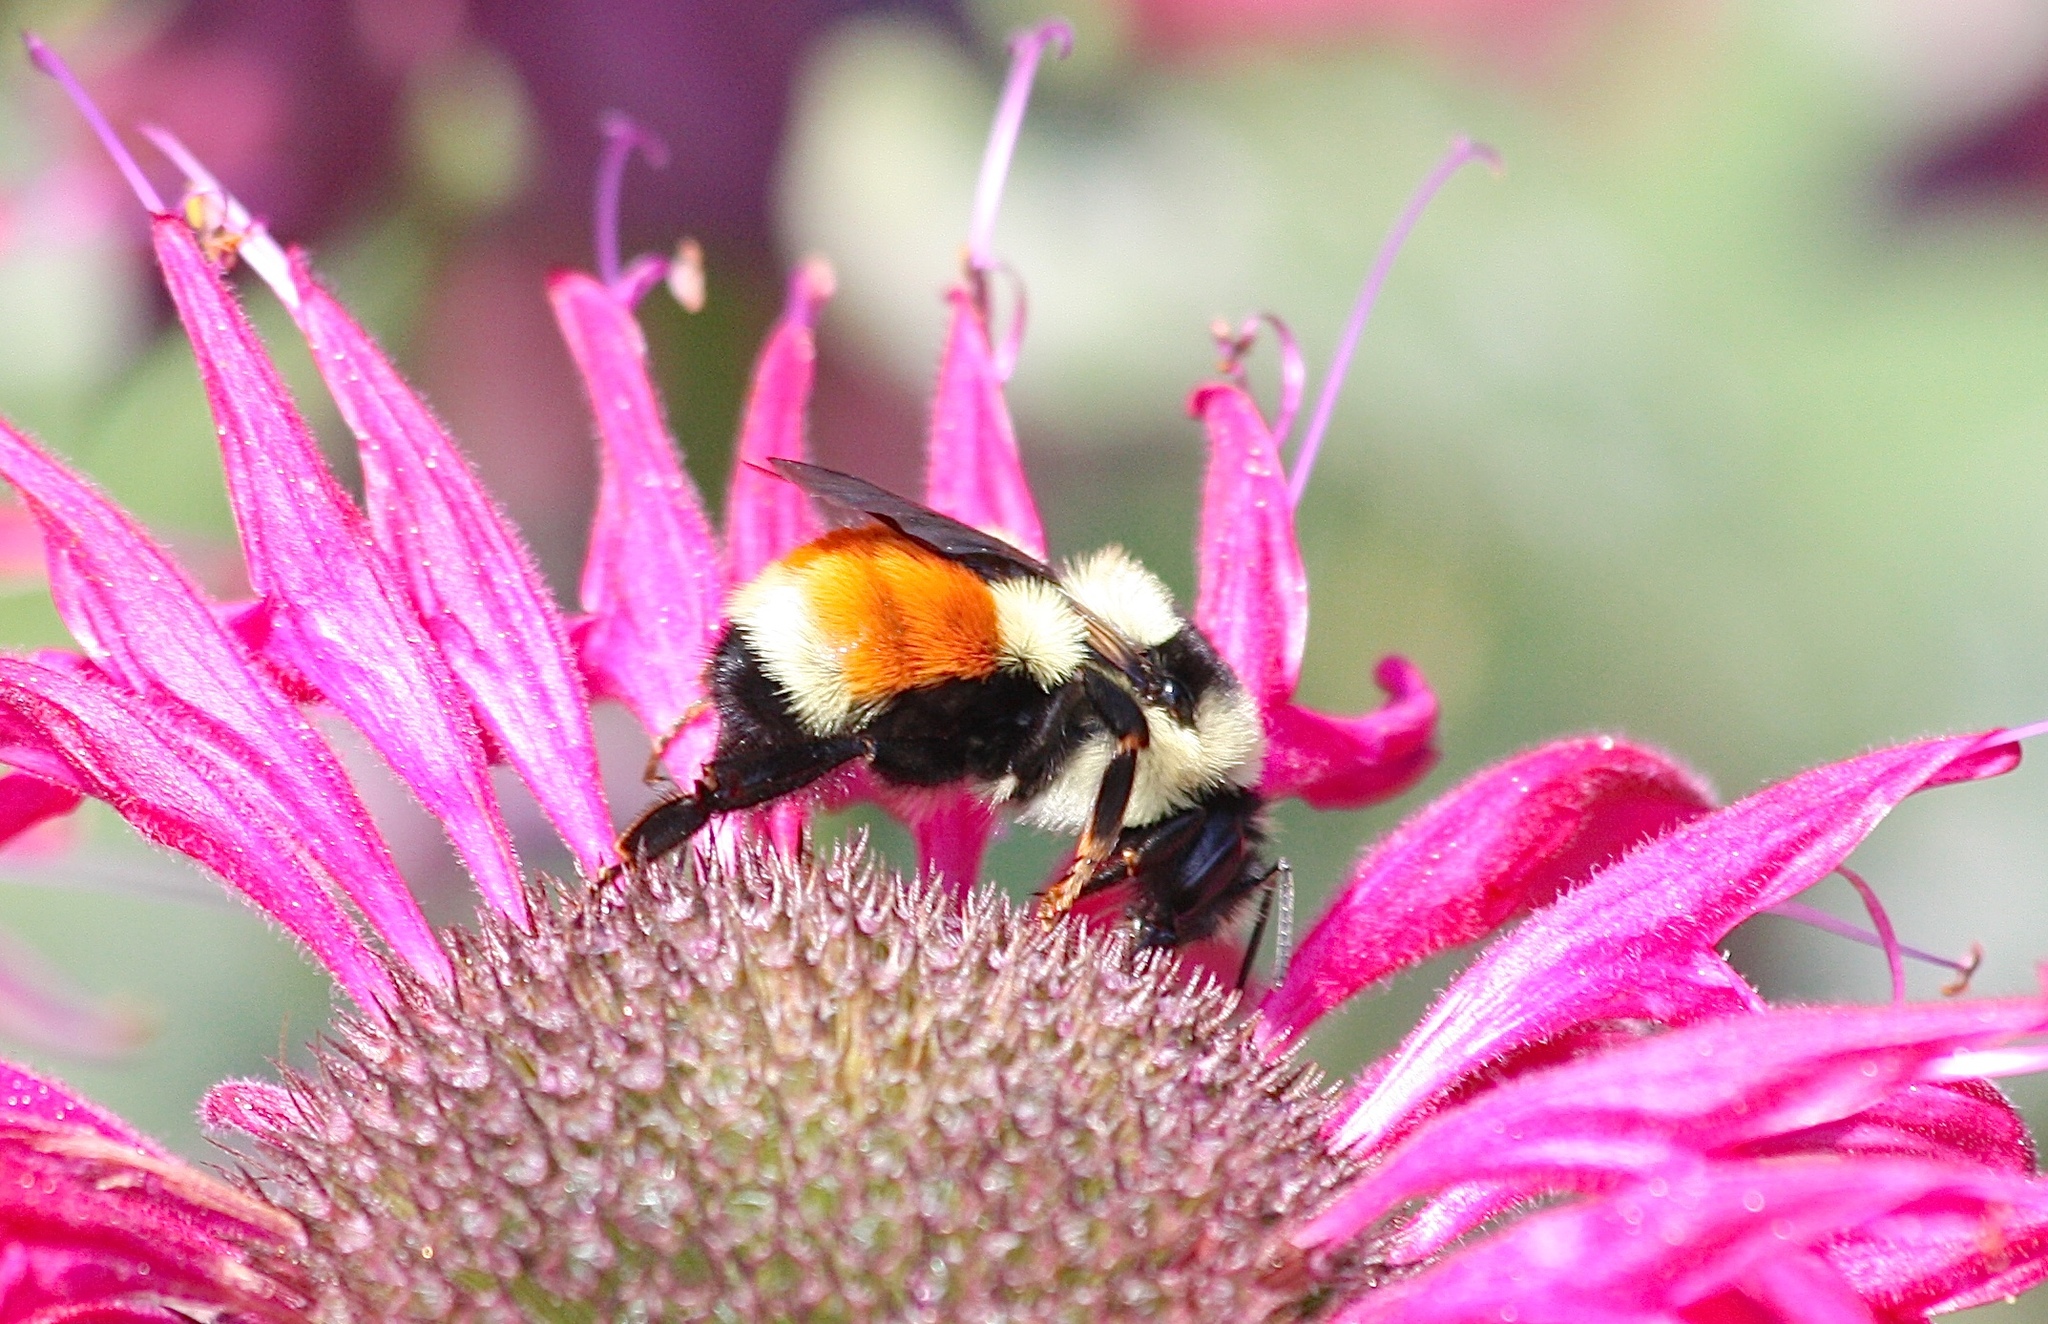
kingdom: Animalia
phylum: Arthropoda
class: Insecta
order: Hymenoptera
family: Apidae
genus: Bombus
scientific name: Bombus ternarius
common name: Tri-colored bumble bee
